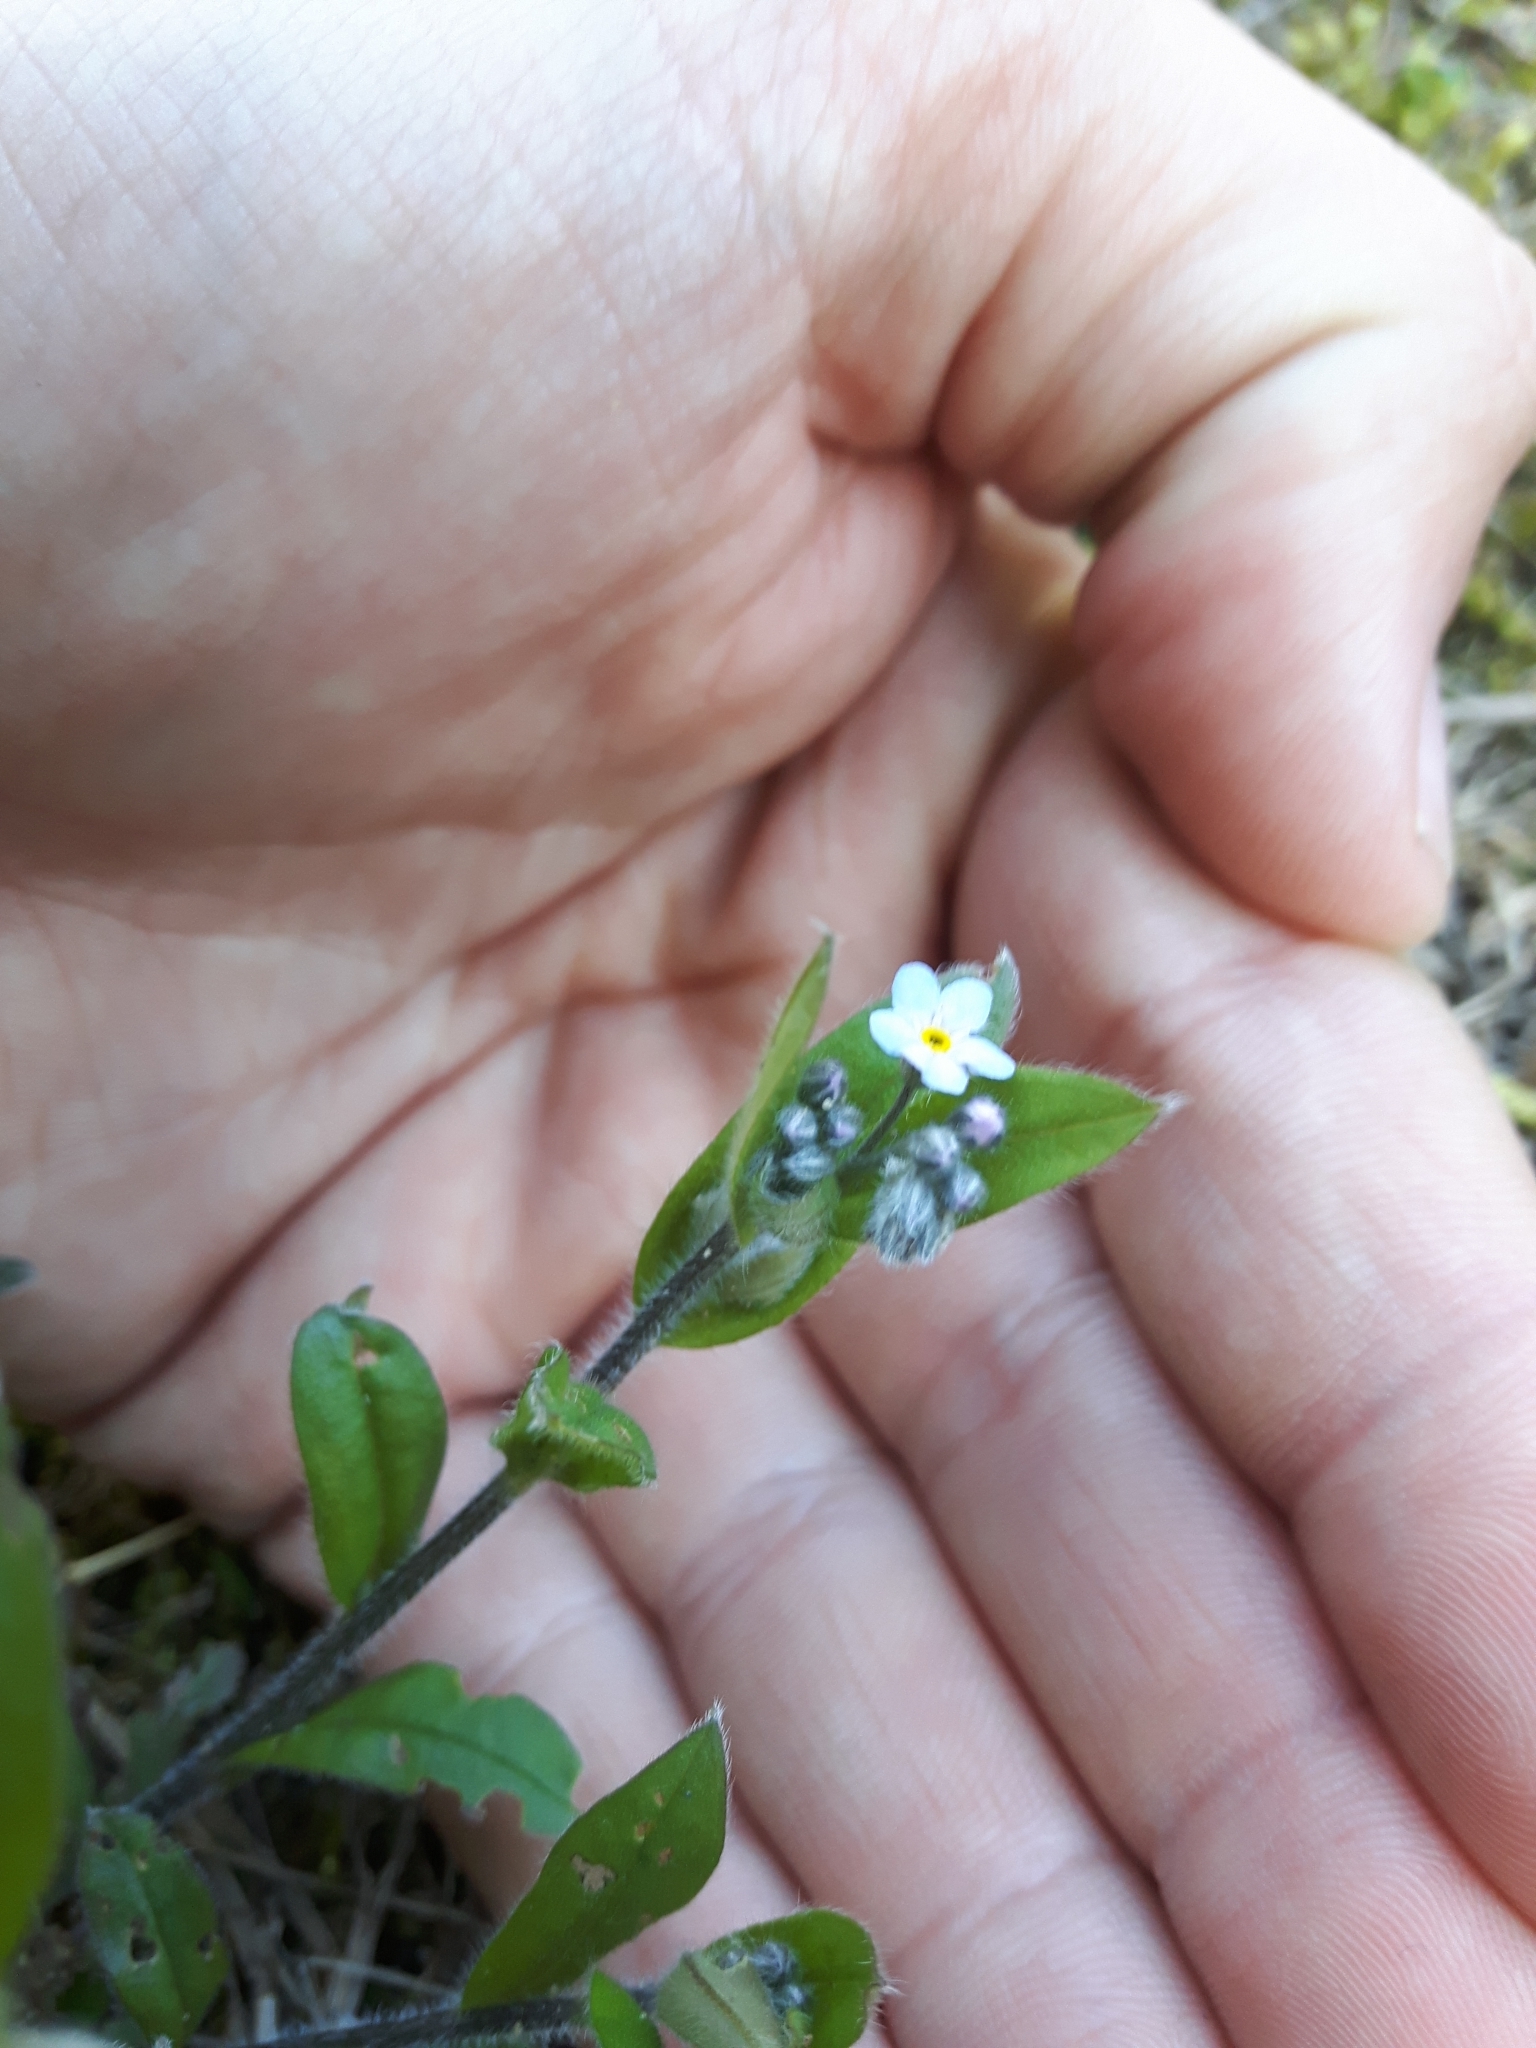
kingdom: Plantae
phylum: Tracheophyta
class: Magnoliopsida
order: Boraginales
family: Boraginaceae
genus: Myosotis
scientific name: Myosotis sylvatica
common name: Wood forget-me-not
